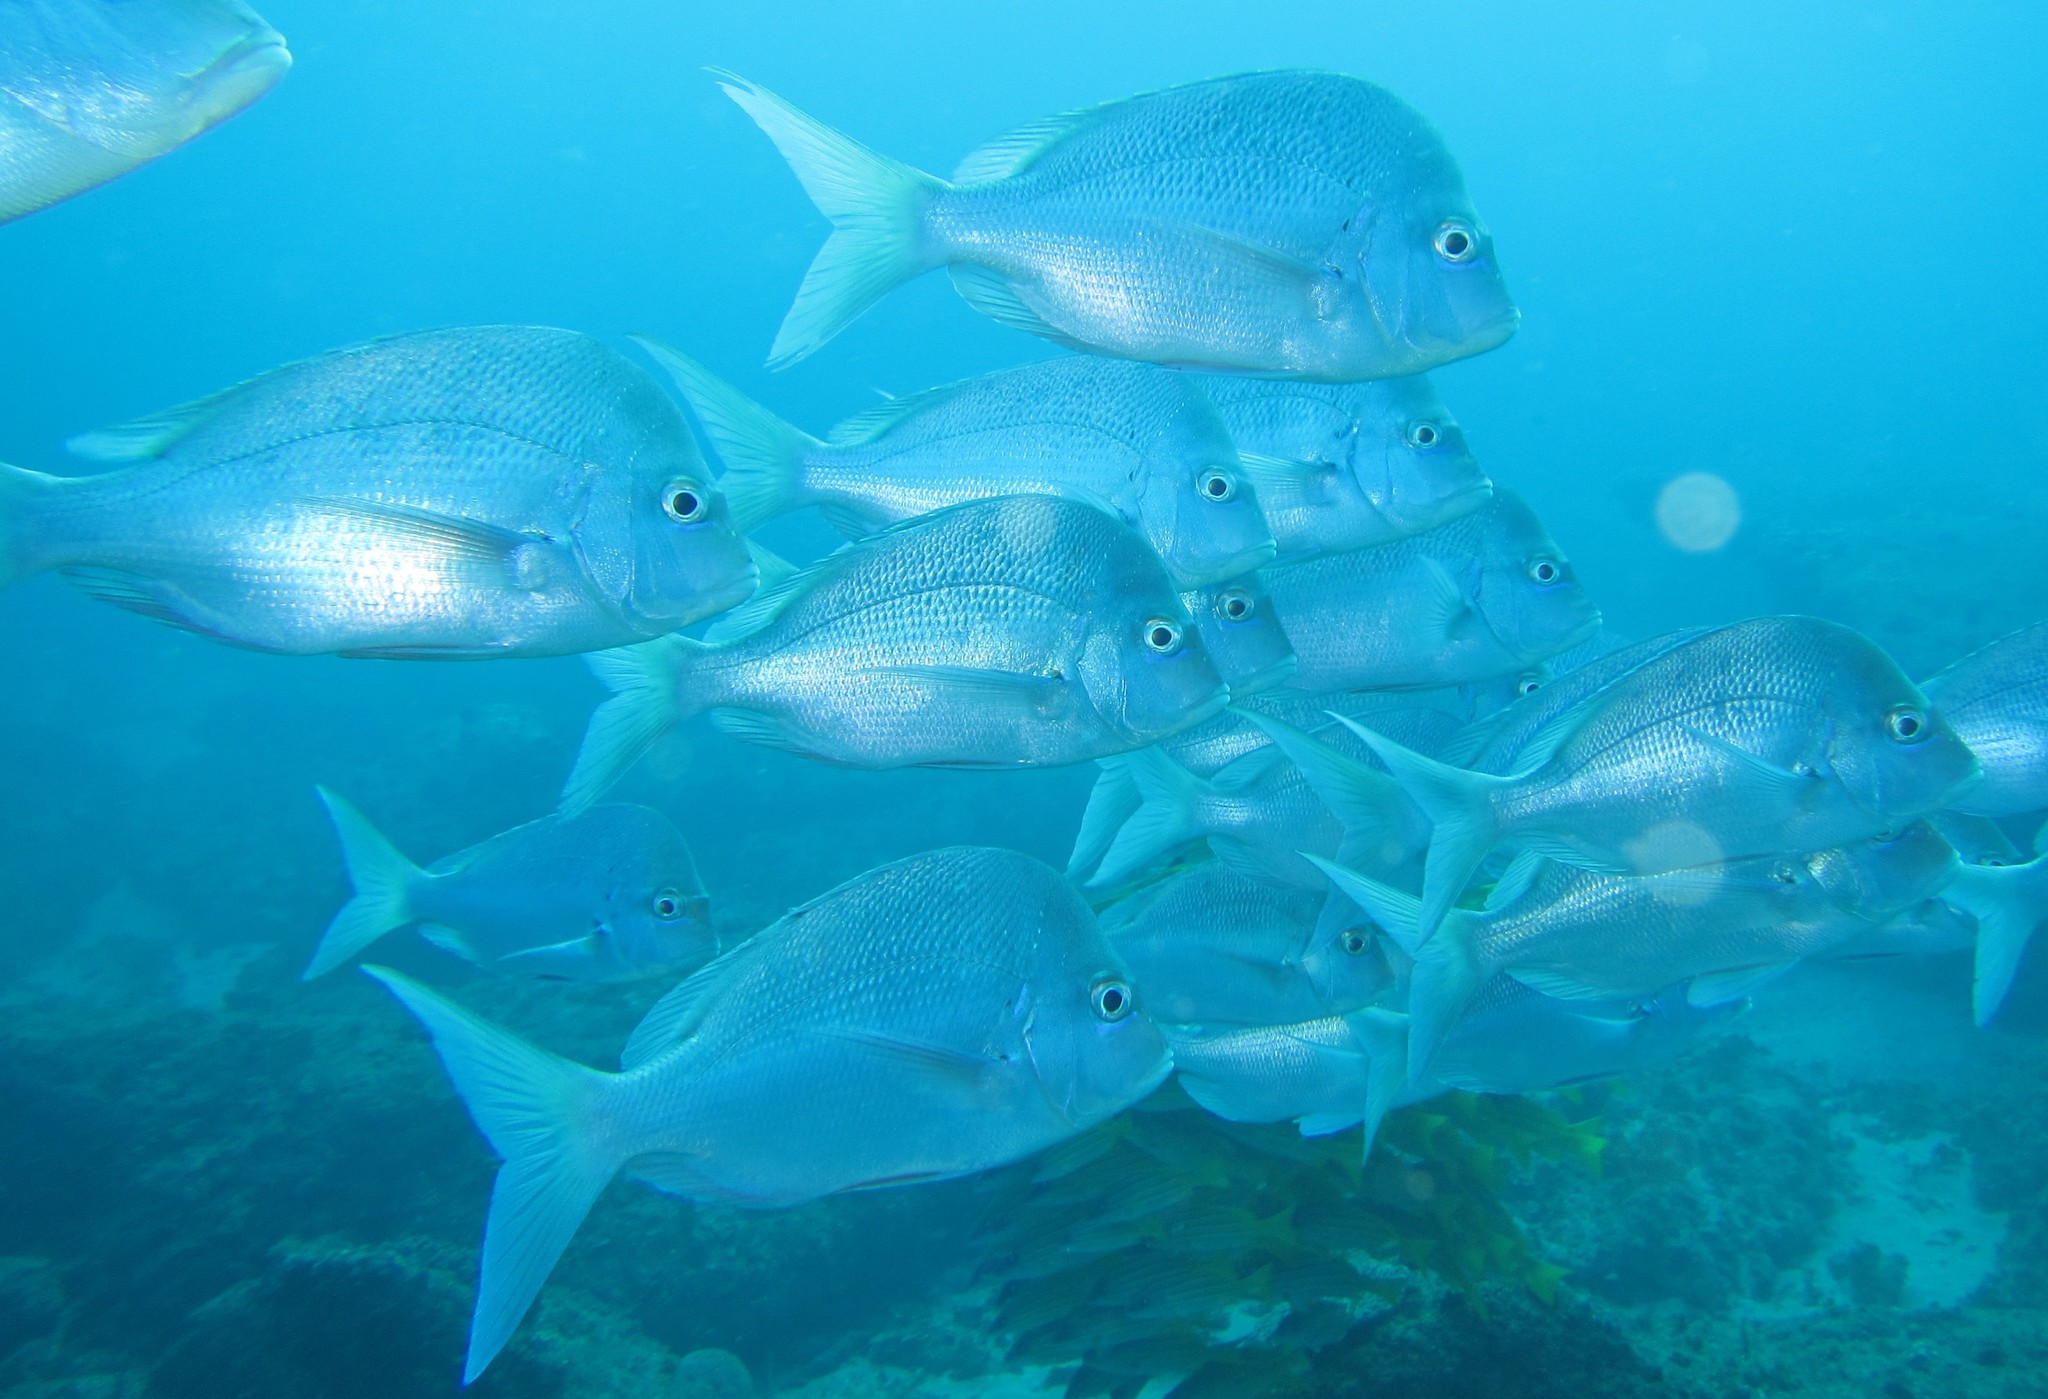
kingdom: Animalia
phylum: Chordata
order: Perciformes
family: Sparidae
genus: Chrysoblephus
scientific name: Chrysoblephus puniceus
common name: Slinger seabream
